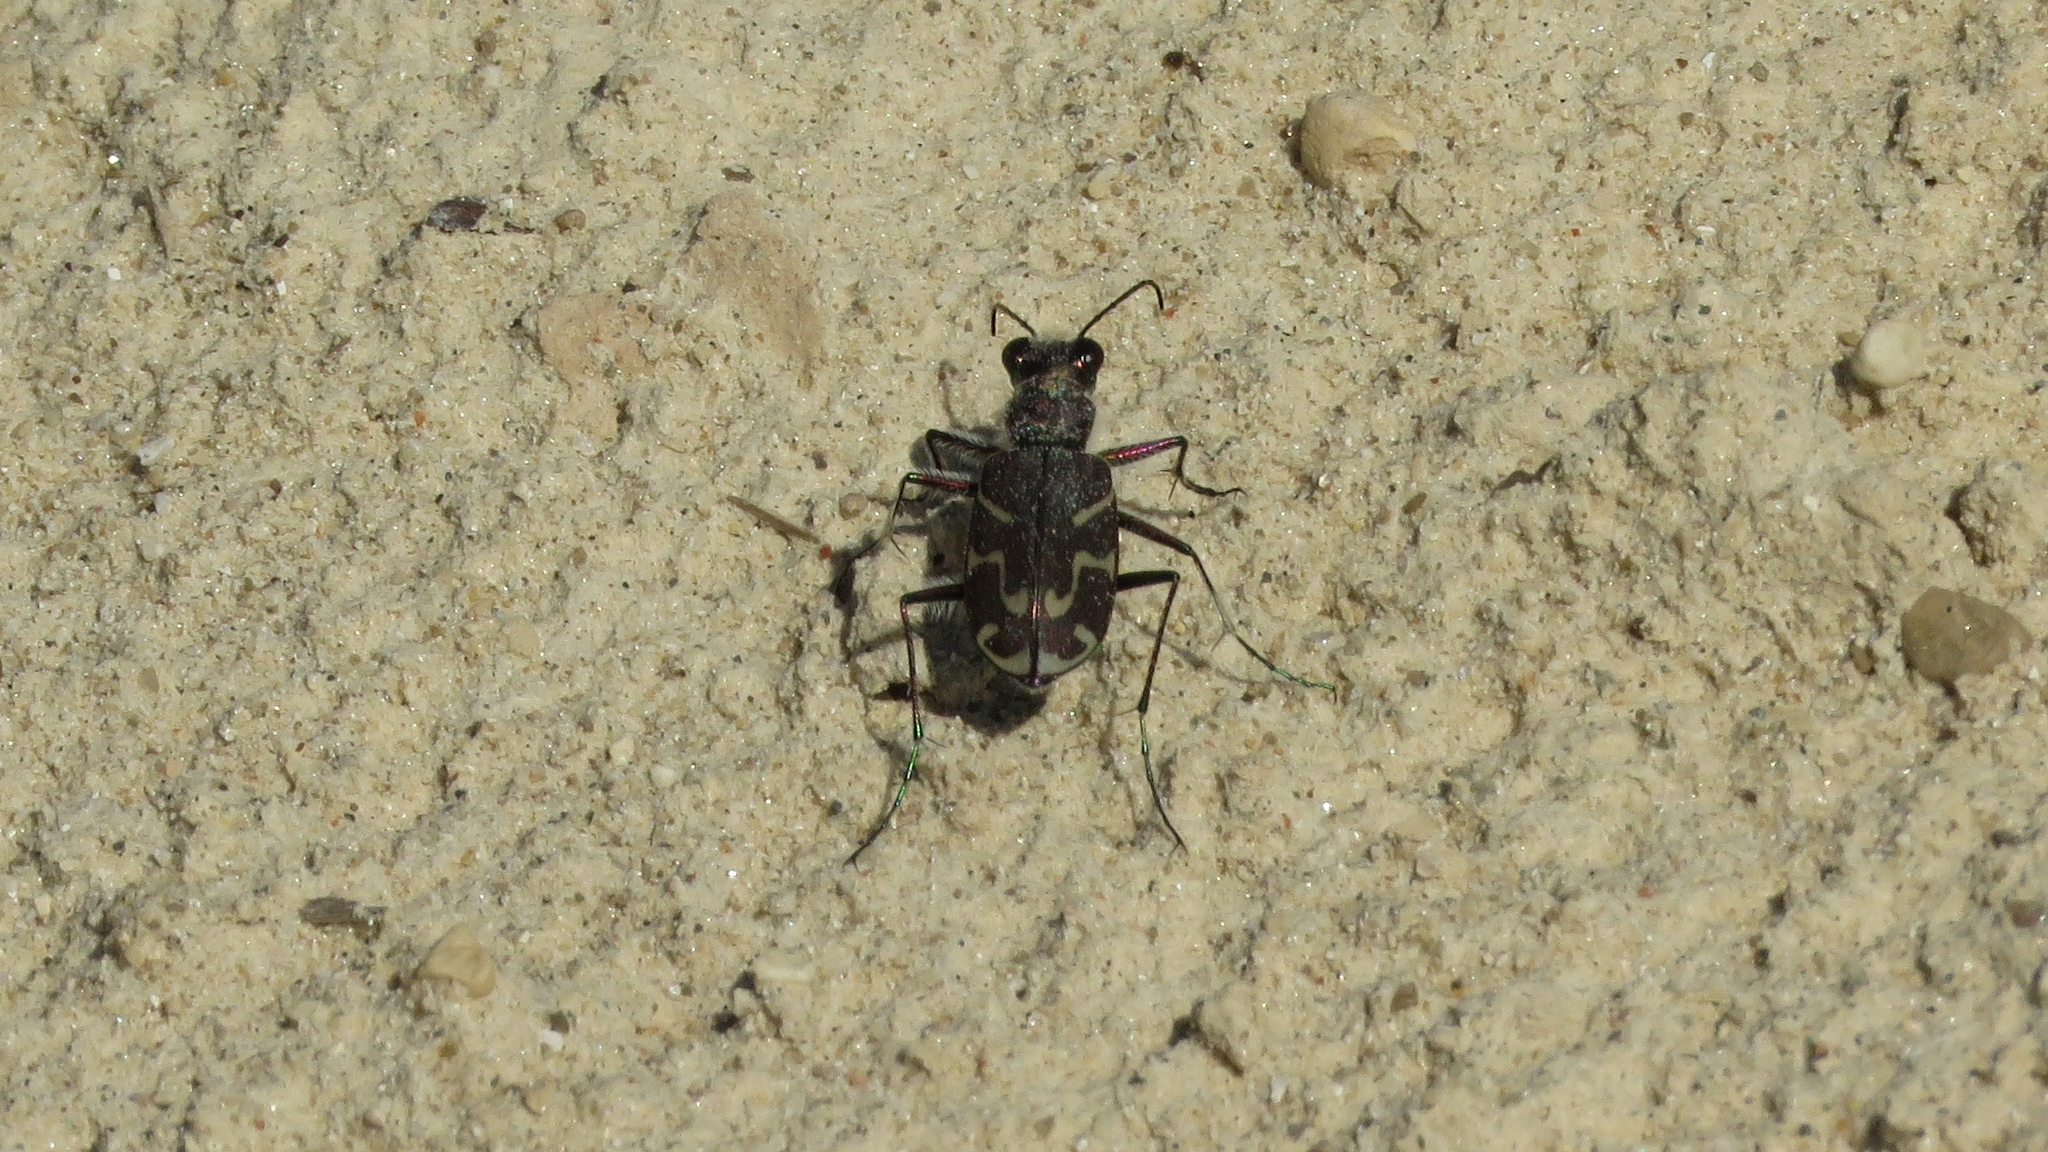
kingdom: Animalia
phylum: Arthropoda
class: Insecta
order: Coleoptera
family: Carabidae
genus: Cicindela
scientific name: Cicindela tranquebarica
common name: Oblique-lined tiger beetle
